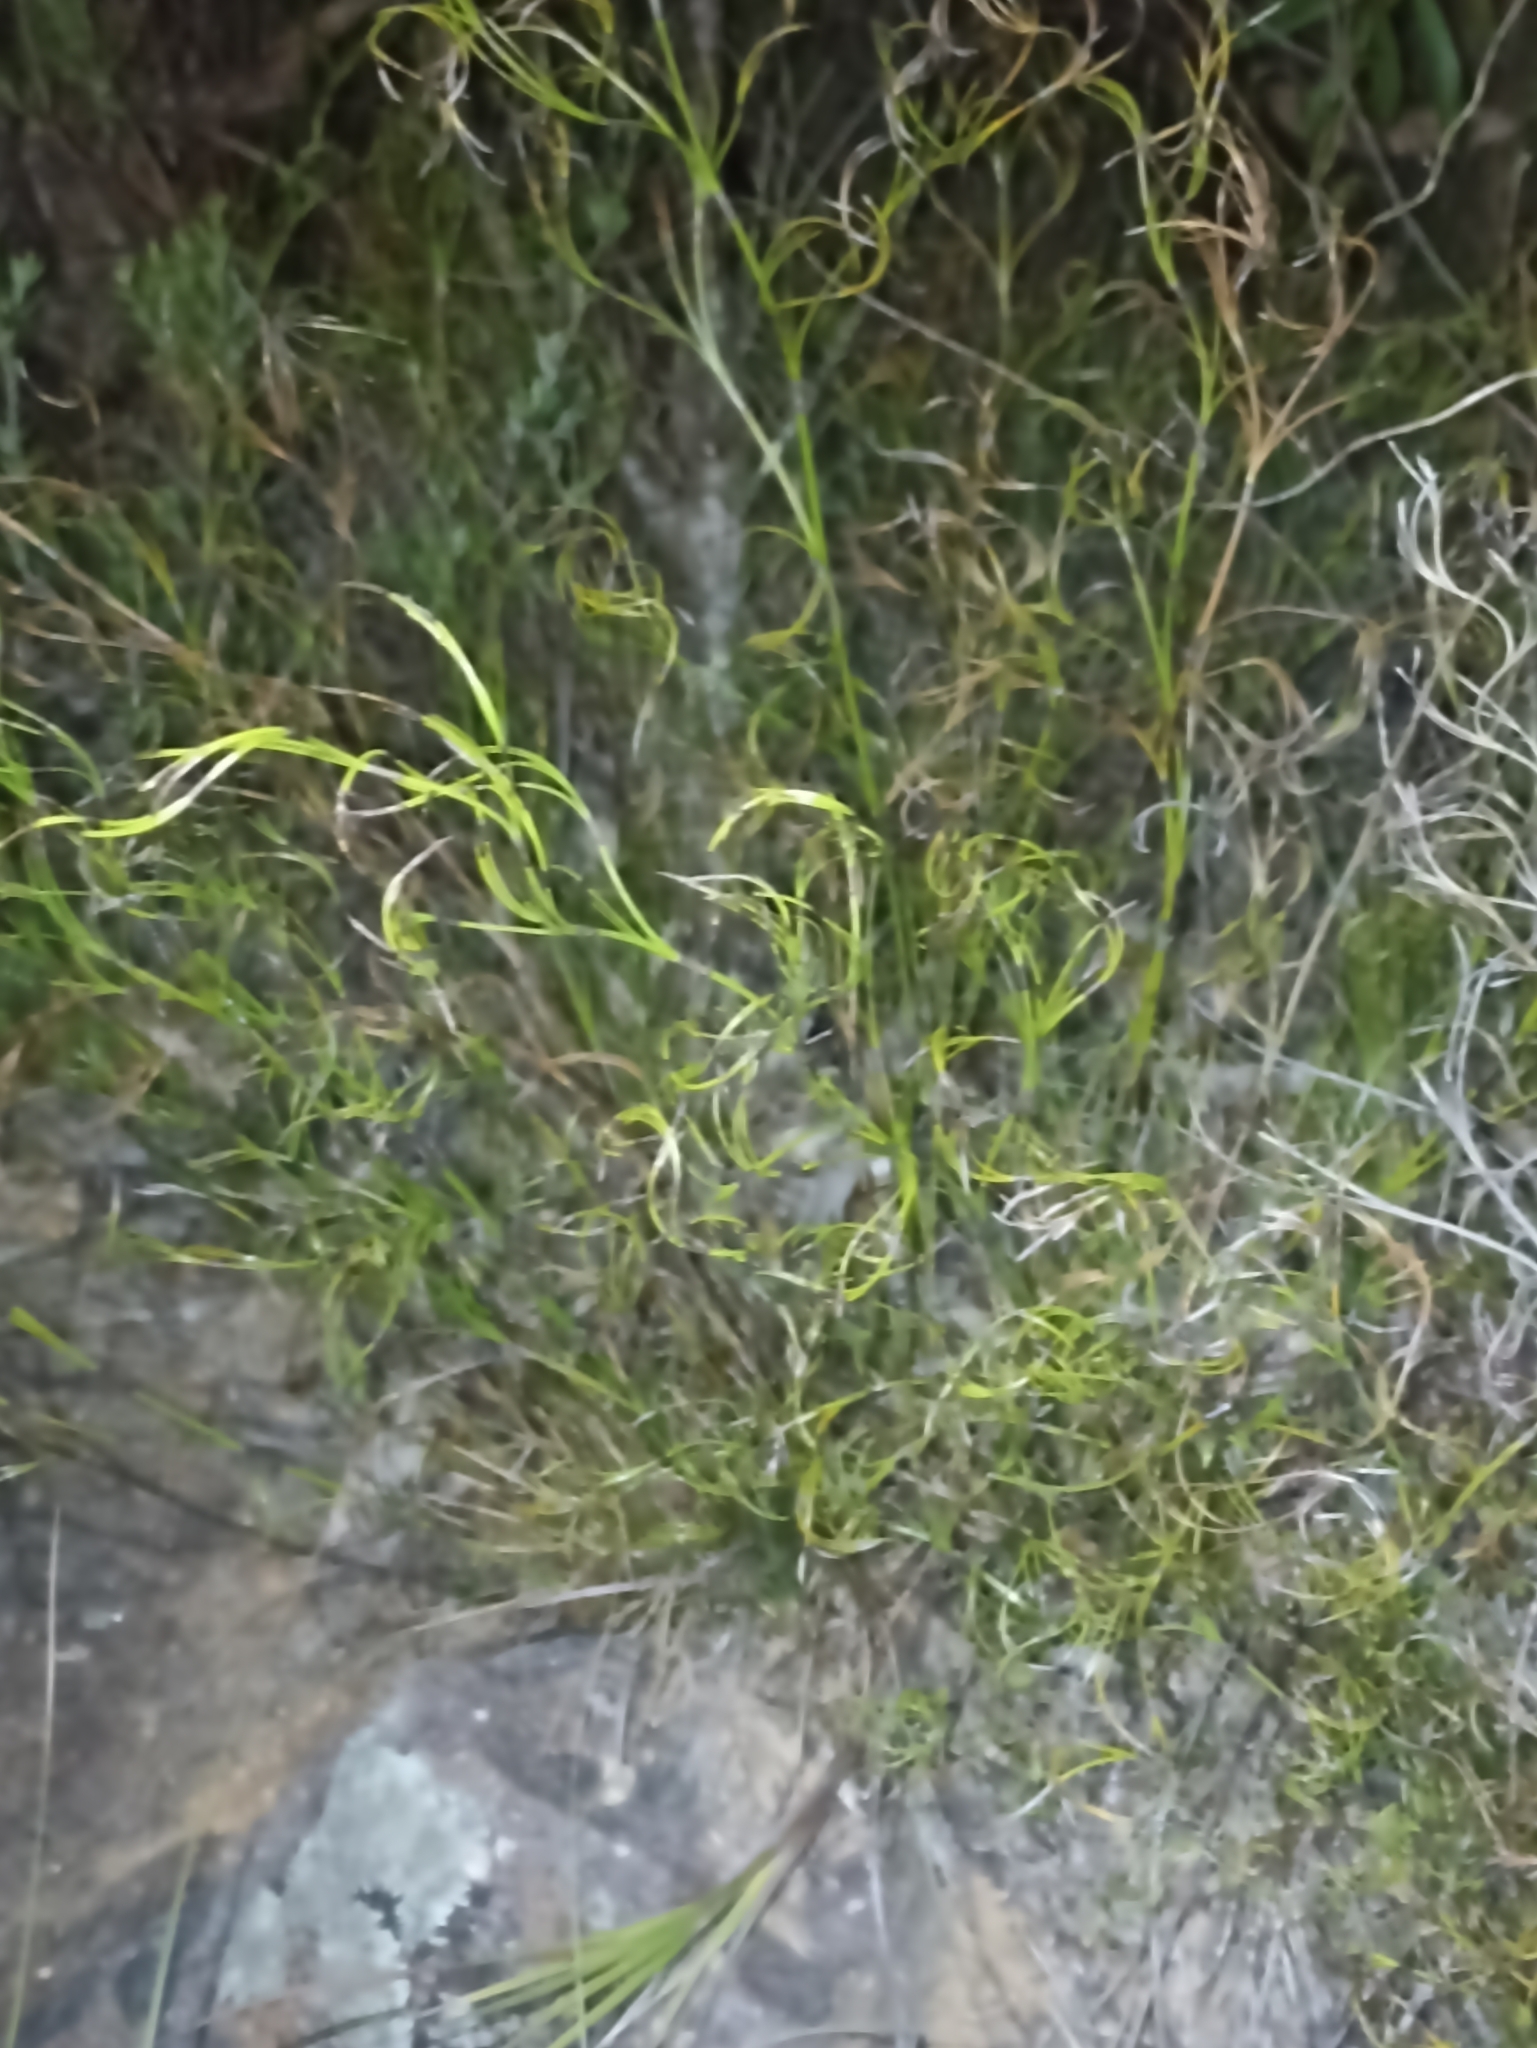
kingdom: Plantae
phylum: Tracheophyta
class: Liliopsida
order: Poales
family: Cyperaceae
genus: Caustis
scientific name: Caustis flexuosa
